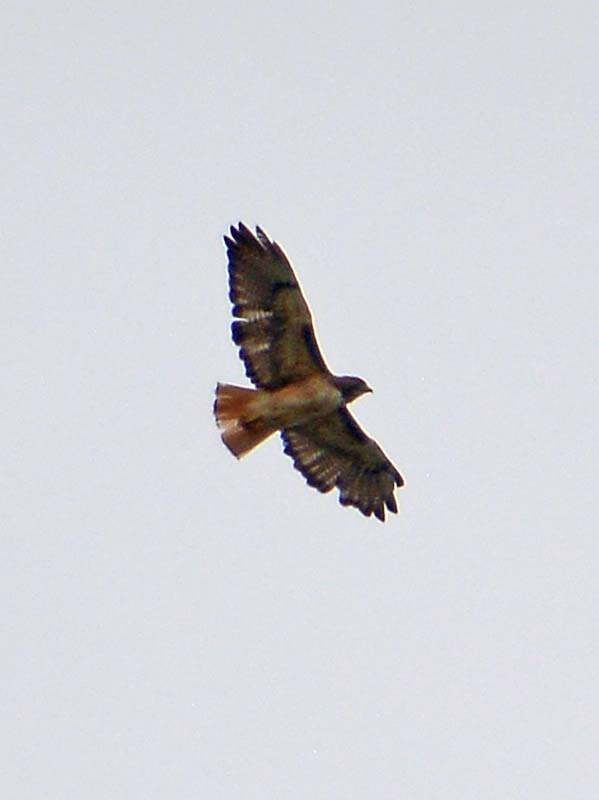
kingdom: Animalia
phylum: Chordata
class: Aves
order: Accipitriformes
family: Accipitridae
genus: Buteo
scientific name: Buteo jamaicensis
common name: Red-tailed hawk
